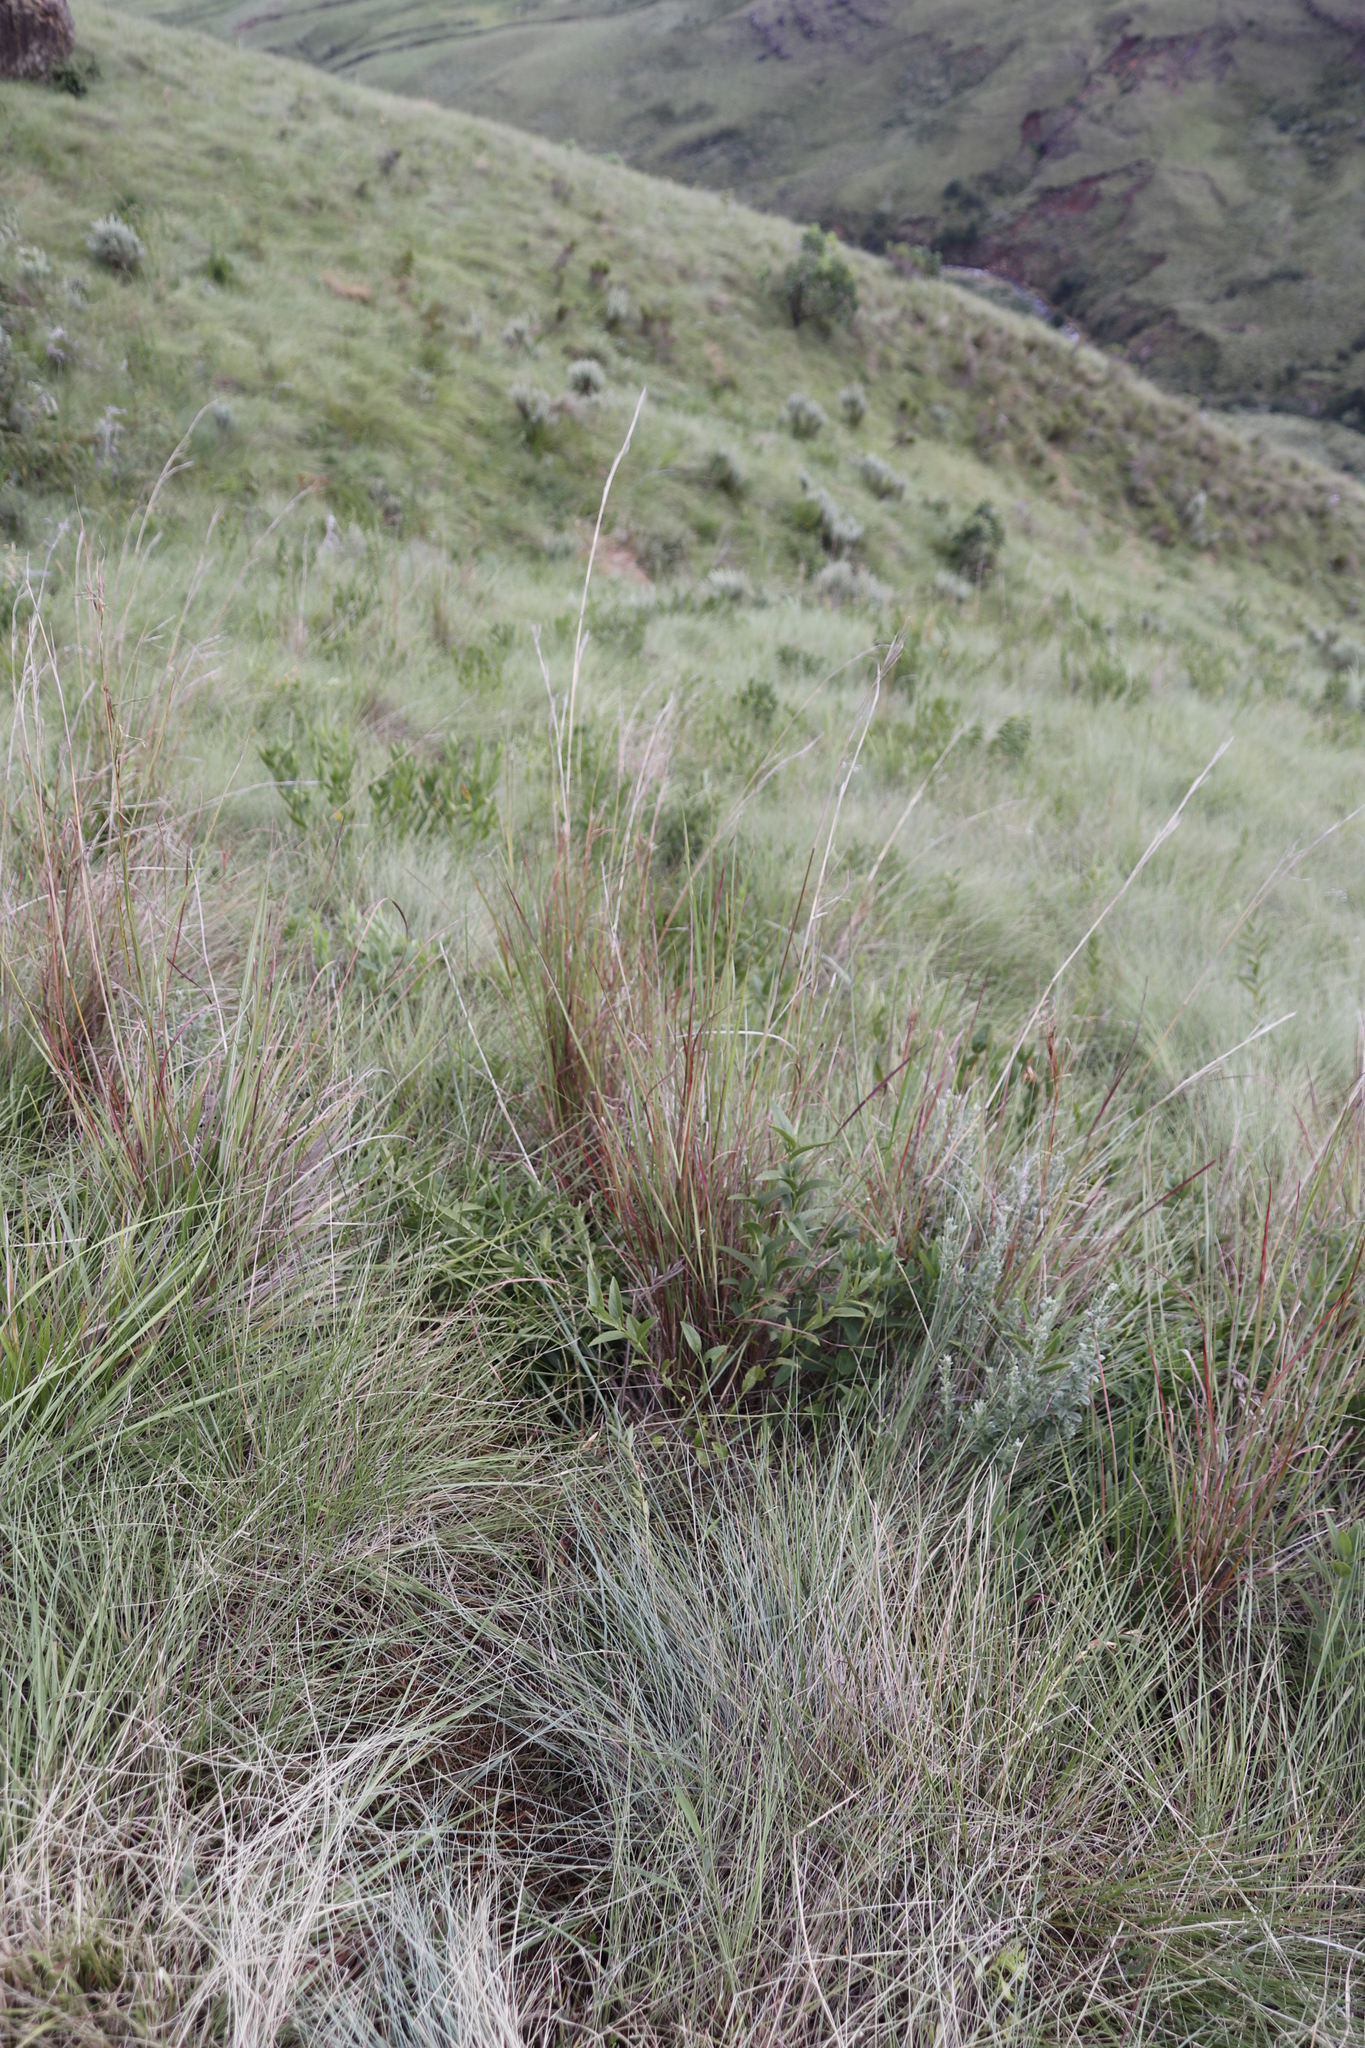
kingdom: Plantae
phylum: Tracheophyta
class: Liliopsida
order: Poales
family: Poaceae
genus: Hyparrhenia
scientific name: Hyparrhenia quarrei
